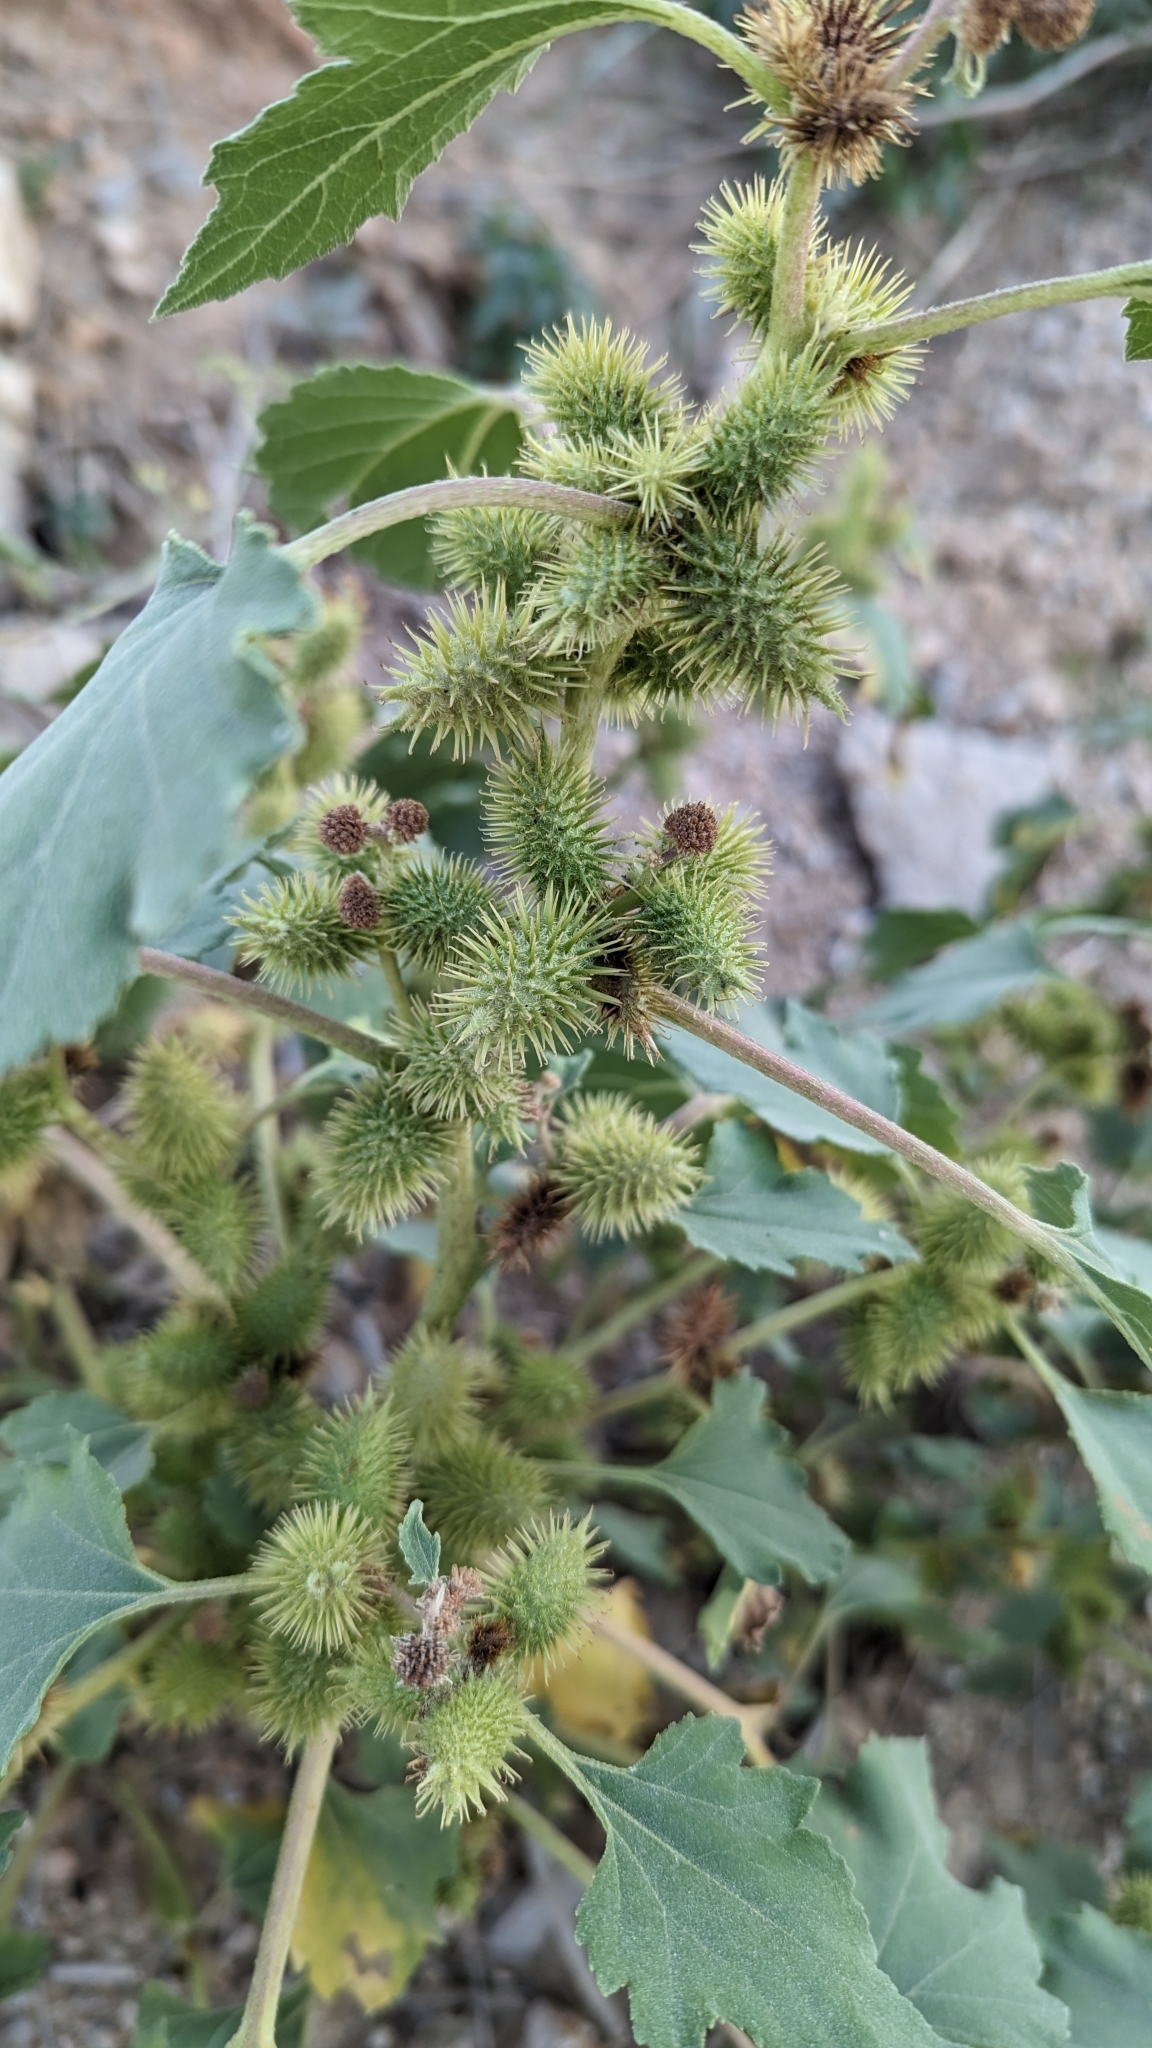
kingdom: Plantae
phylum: Tracheophyta
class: Magnoliopsida
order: Asterales
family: Asteraceae
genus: Xanthium
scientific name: Xanthium strumarium
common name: Rough cocklebur
